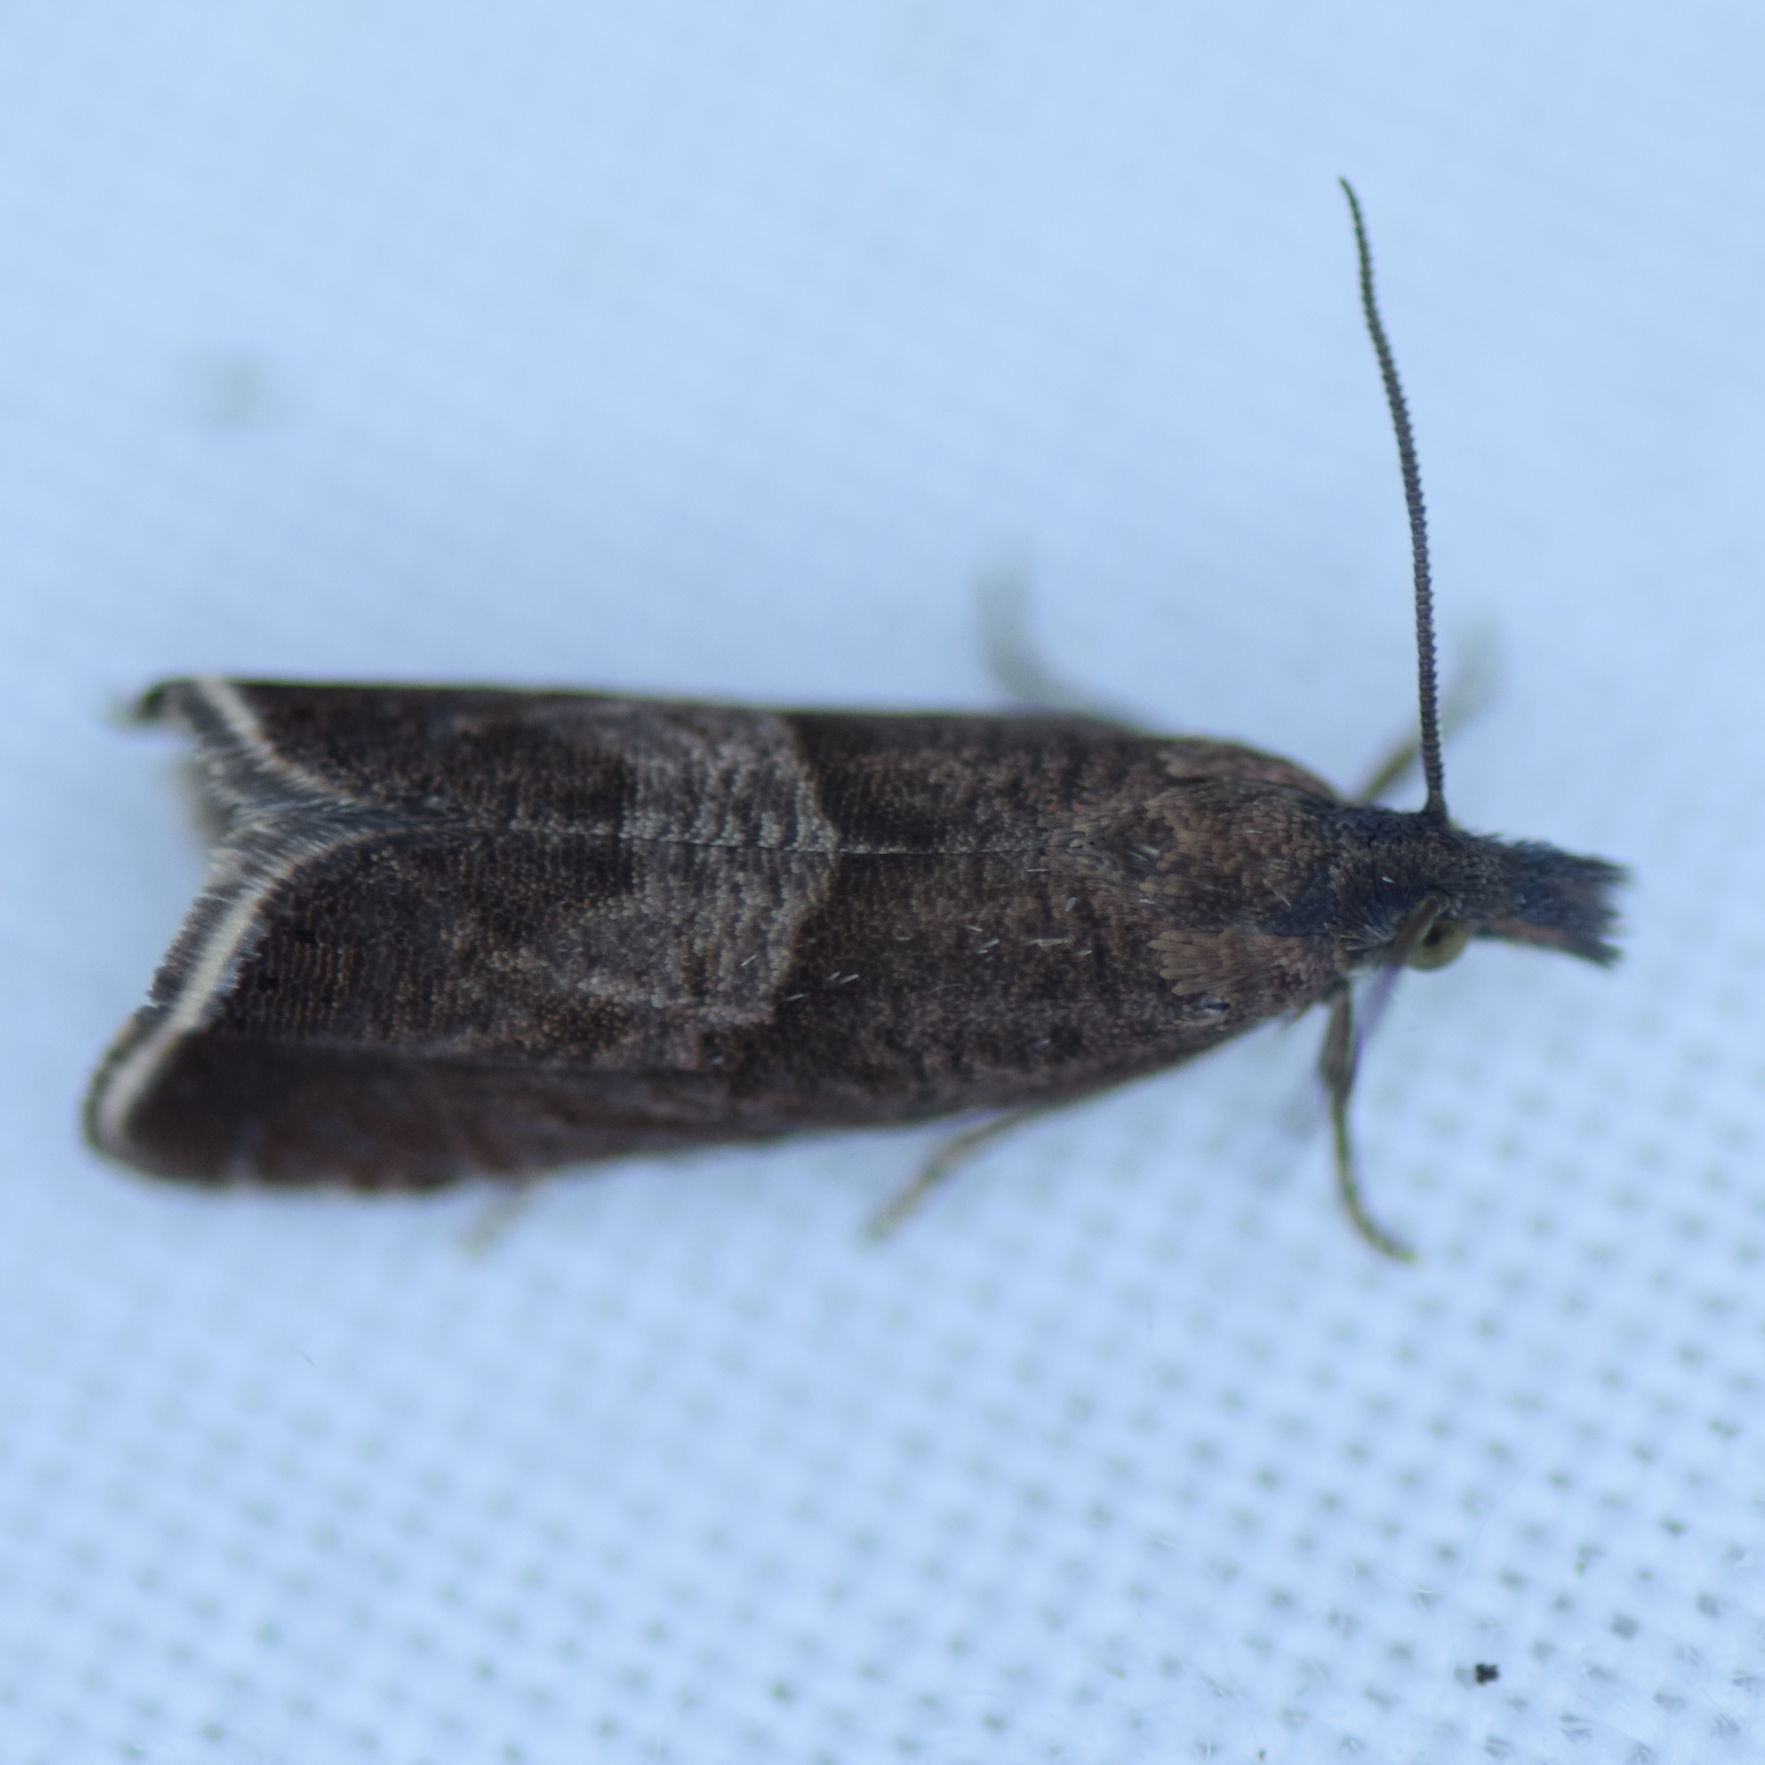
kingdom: Animalia
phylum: Arthropoda
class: Insecta
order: Lepidoptera
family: Tortricidae
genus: Dichrorampha
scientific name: Dichrorampha acuminatana
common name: Sharp-winged drill
